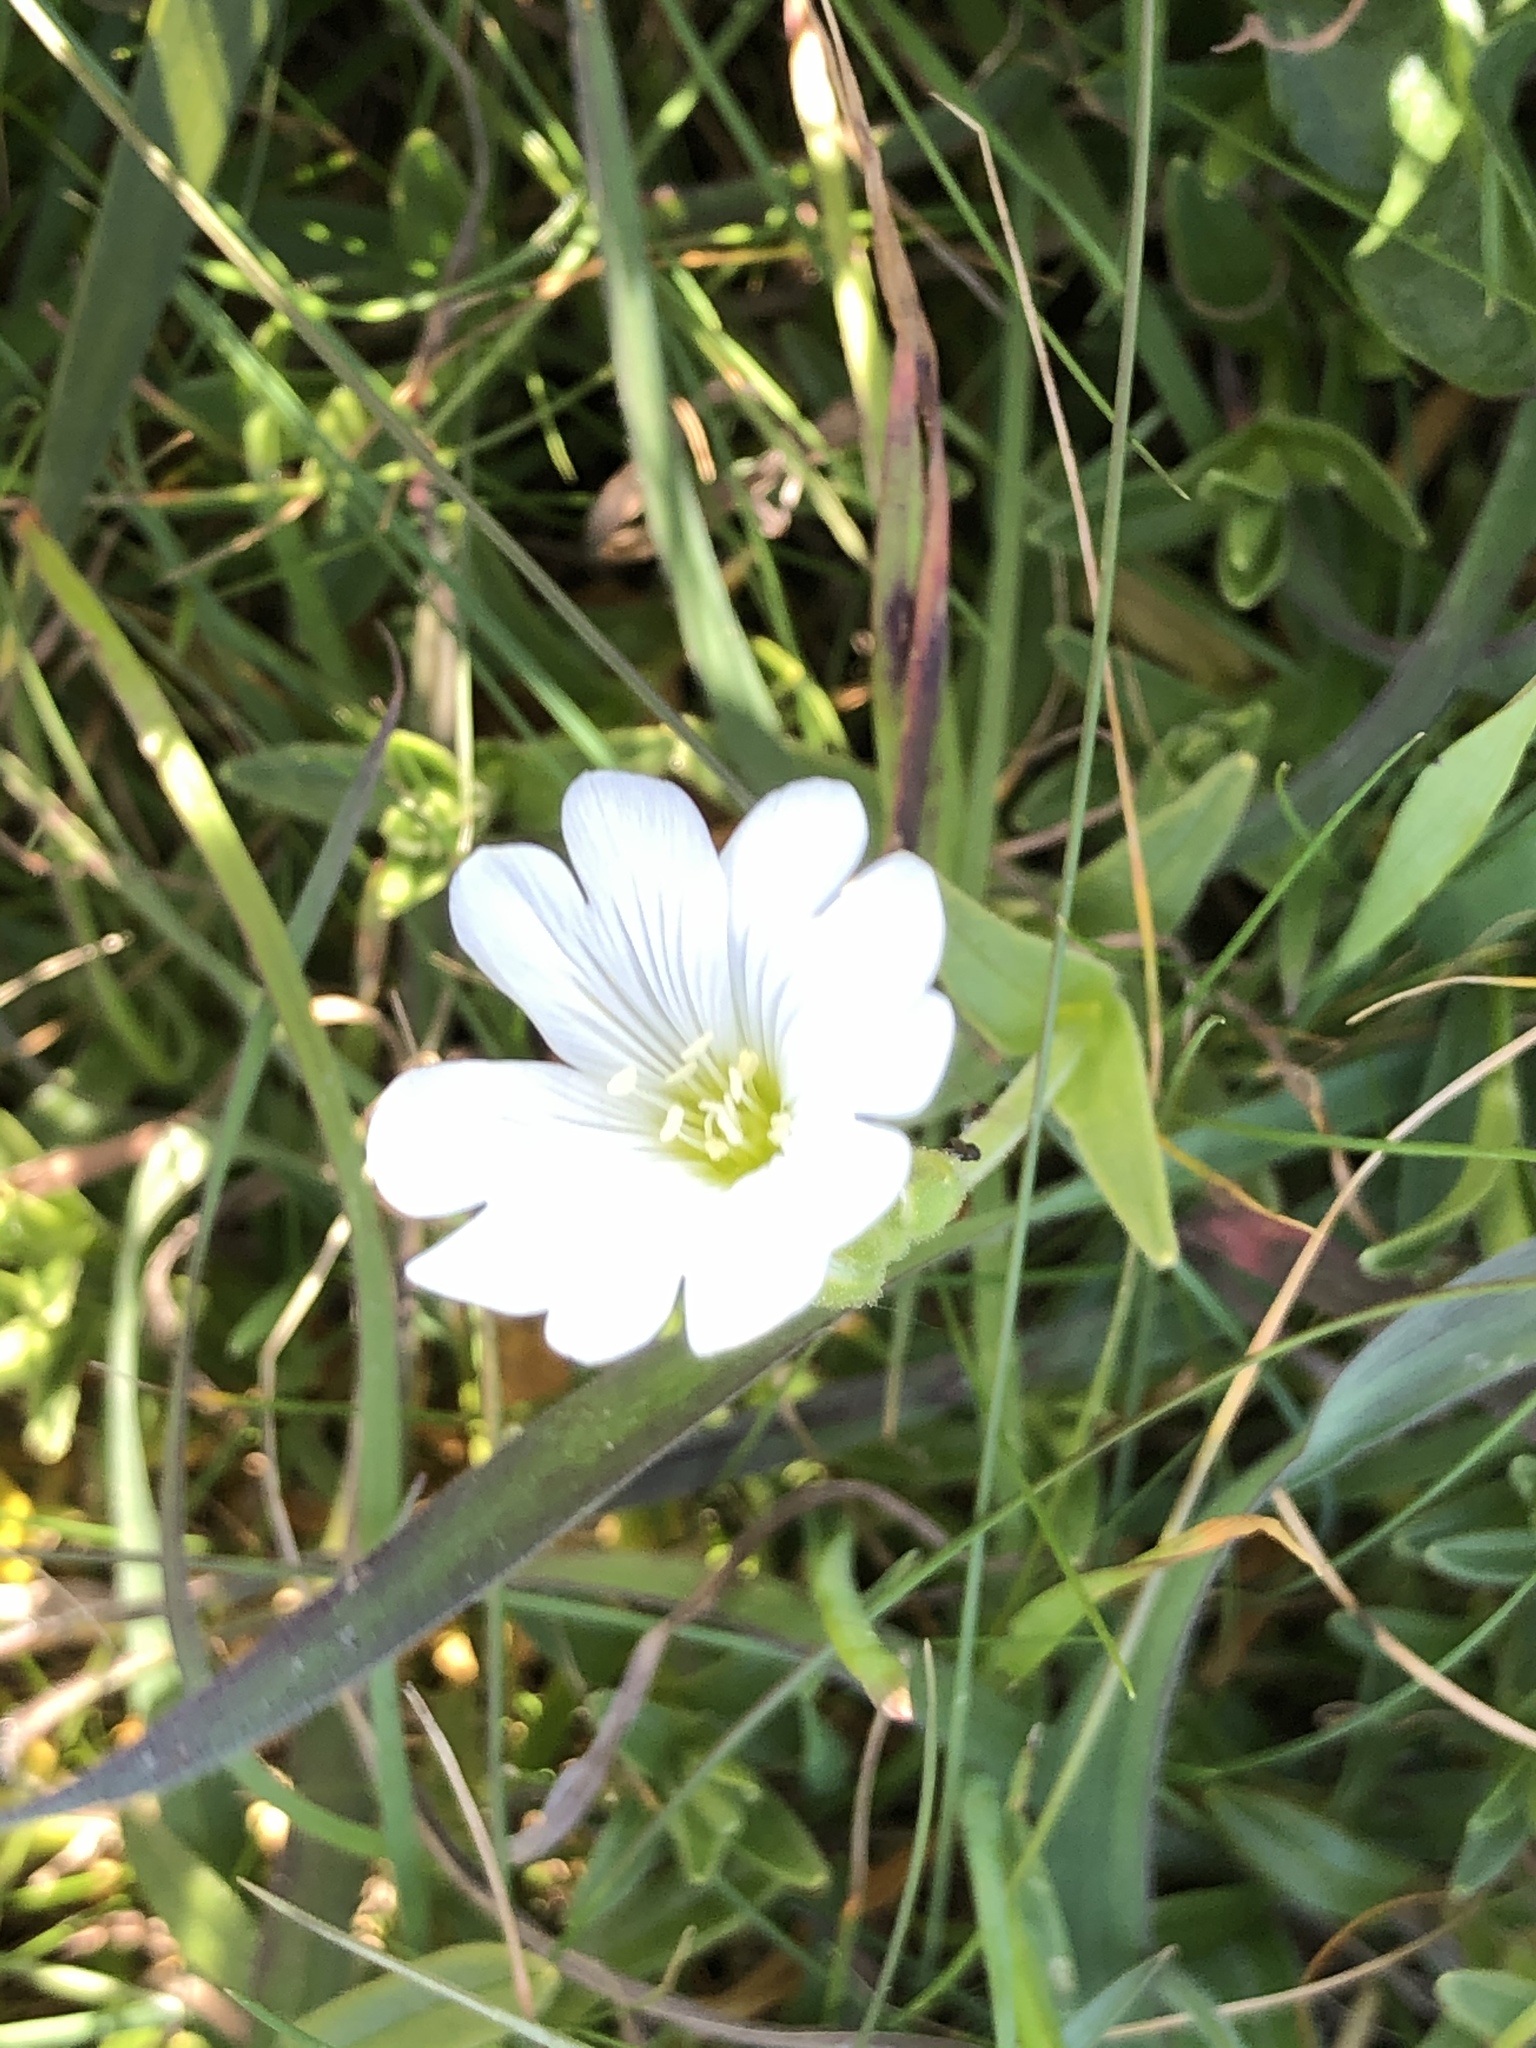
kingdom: Plantae
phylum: Tracheophyta
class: Magnoliopsida
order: Caryophyllales
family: Caryophyllaceae
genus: Cerastium
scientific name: Cerastium arvense
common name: Field mouse-ear
